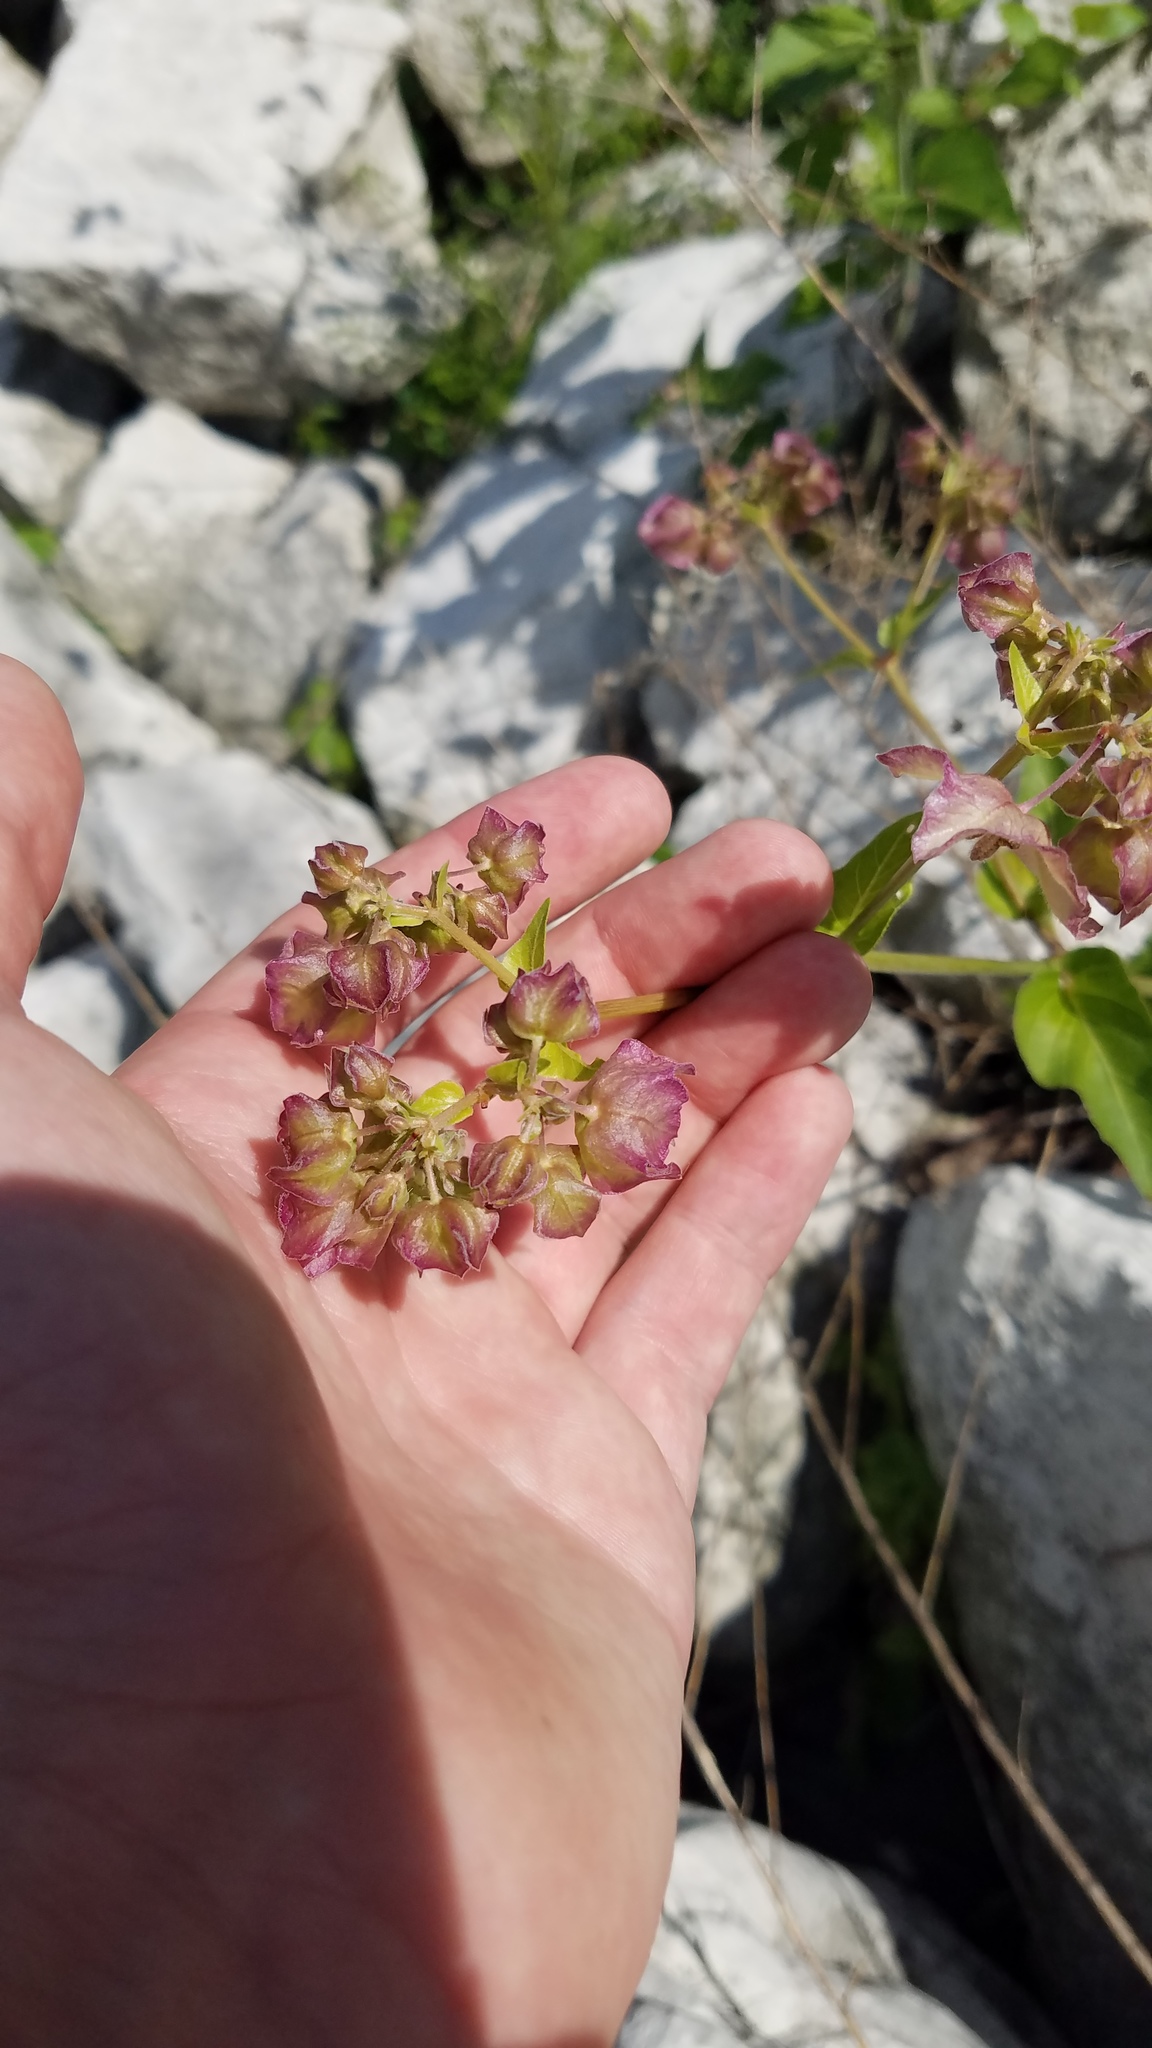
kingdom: Plantae
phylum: Tracheophyta
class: Magnoliopsida
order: Caryophyllales
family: Nyctaginaceae
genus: Mirabilis
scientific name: Mirabilis nyctaginea
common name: Umbrella wort
